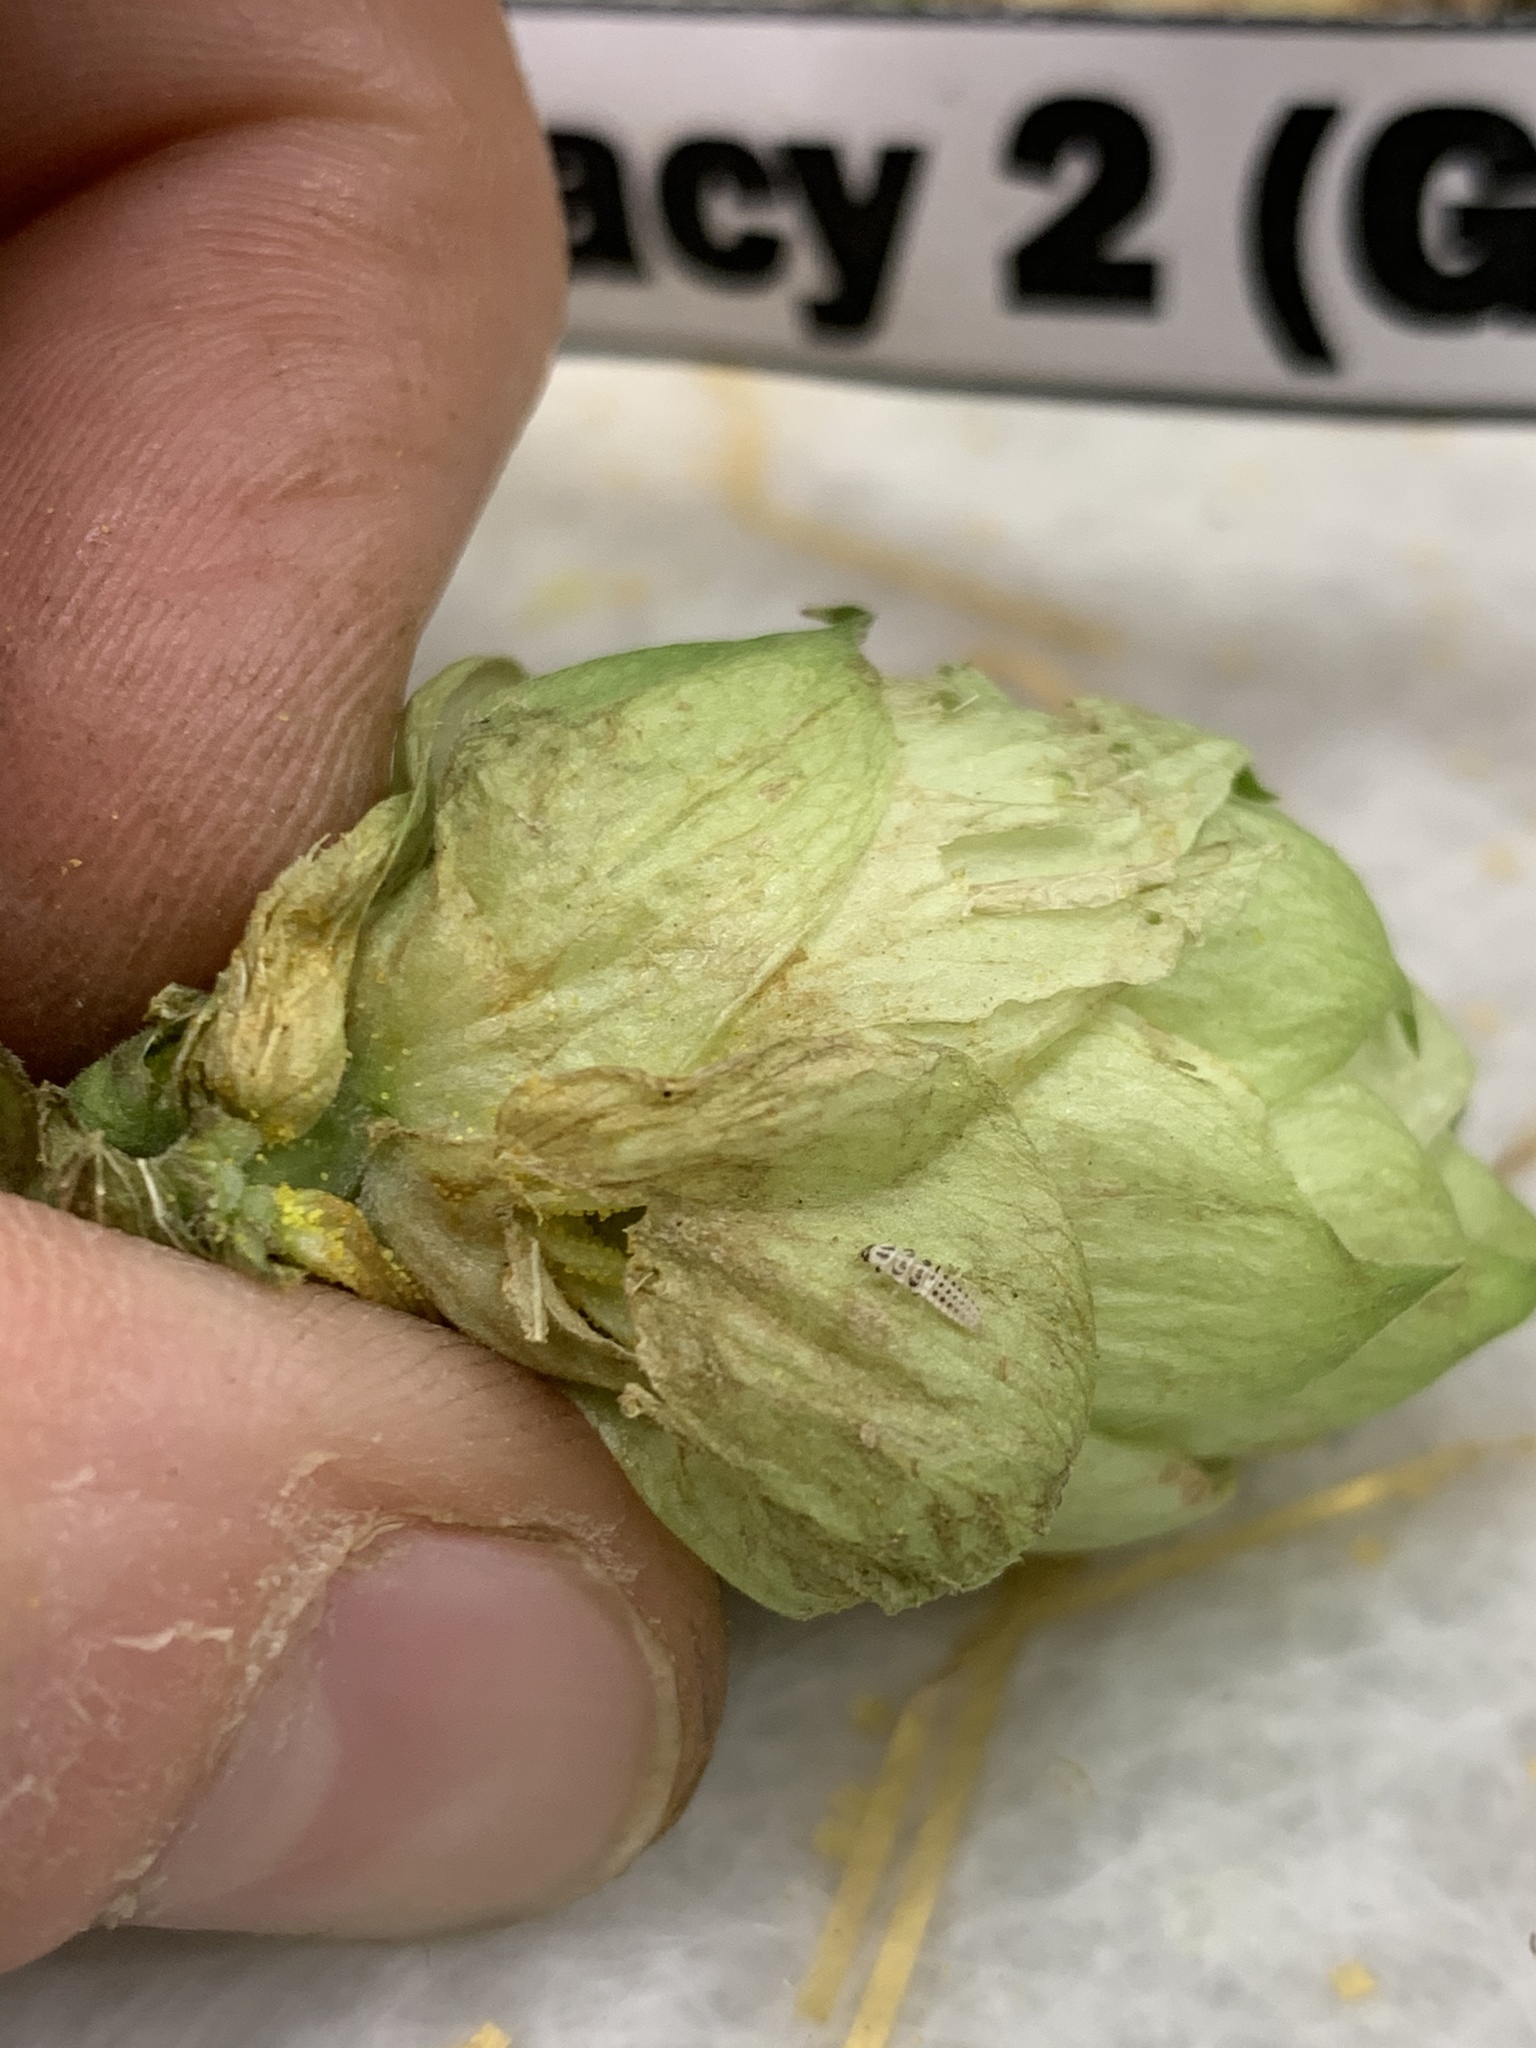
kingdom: Animalia
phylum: Arthropoda
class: Insecta
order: Coleoptera
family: Coccinellidae
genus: Psyllobora
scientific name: Psyllobora vigintimaculata
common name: Ladybird beetle
